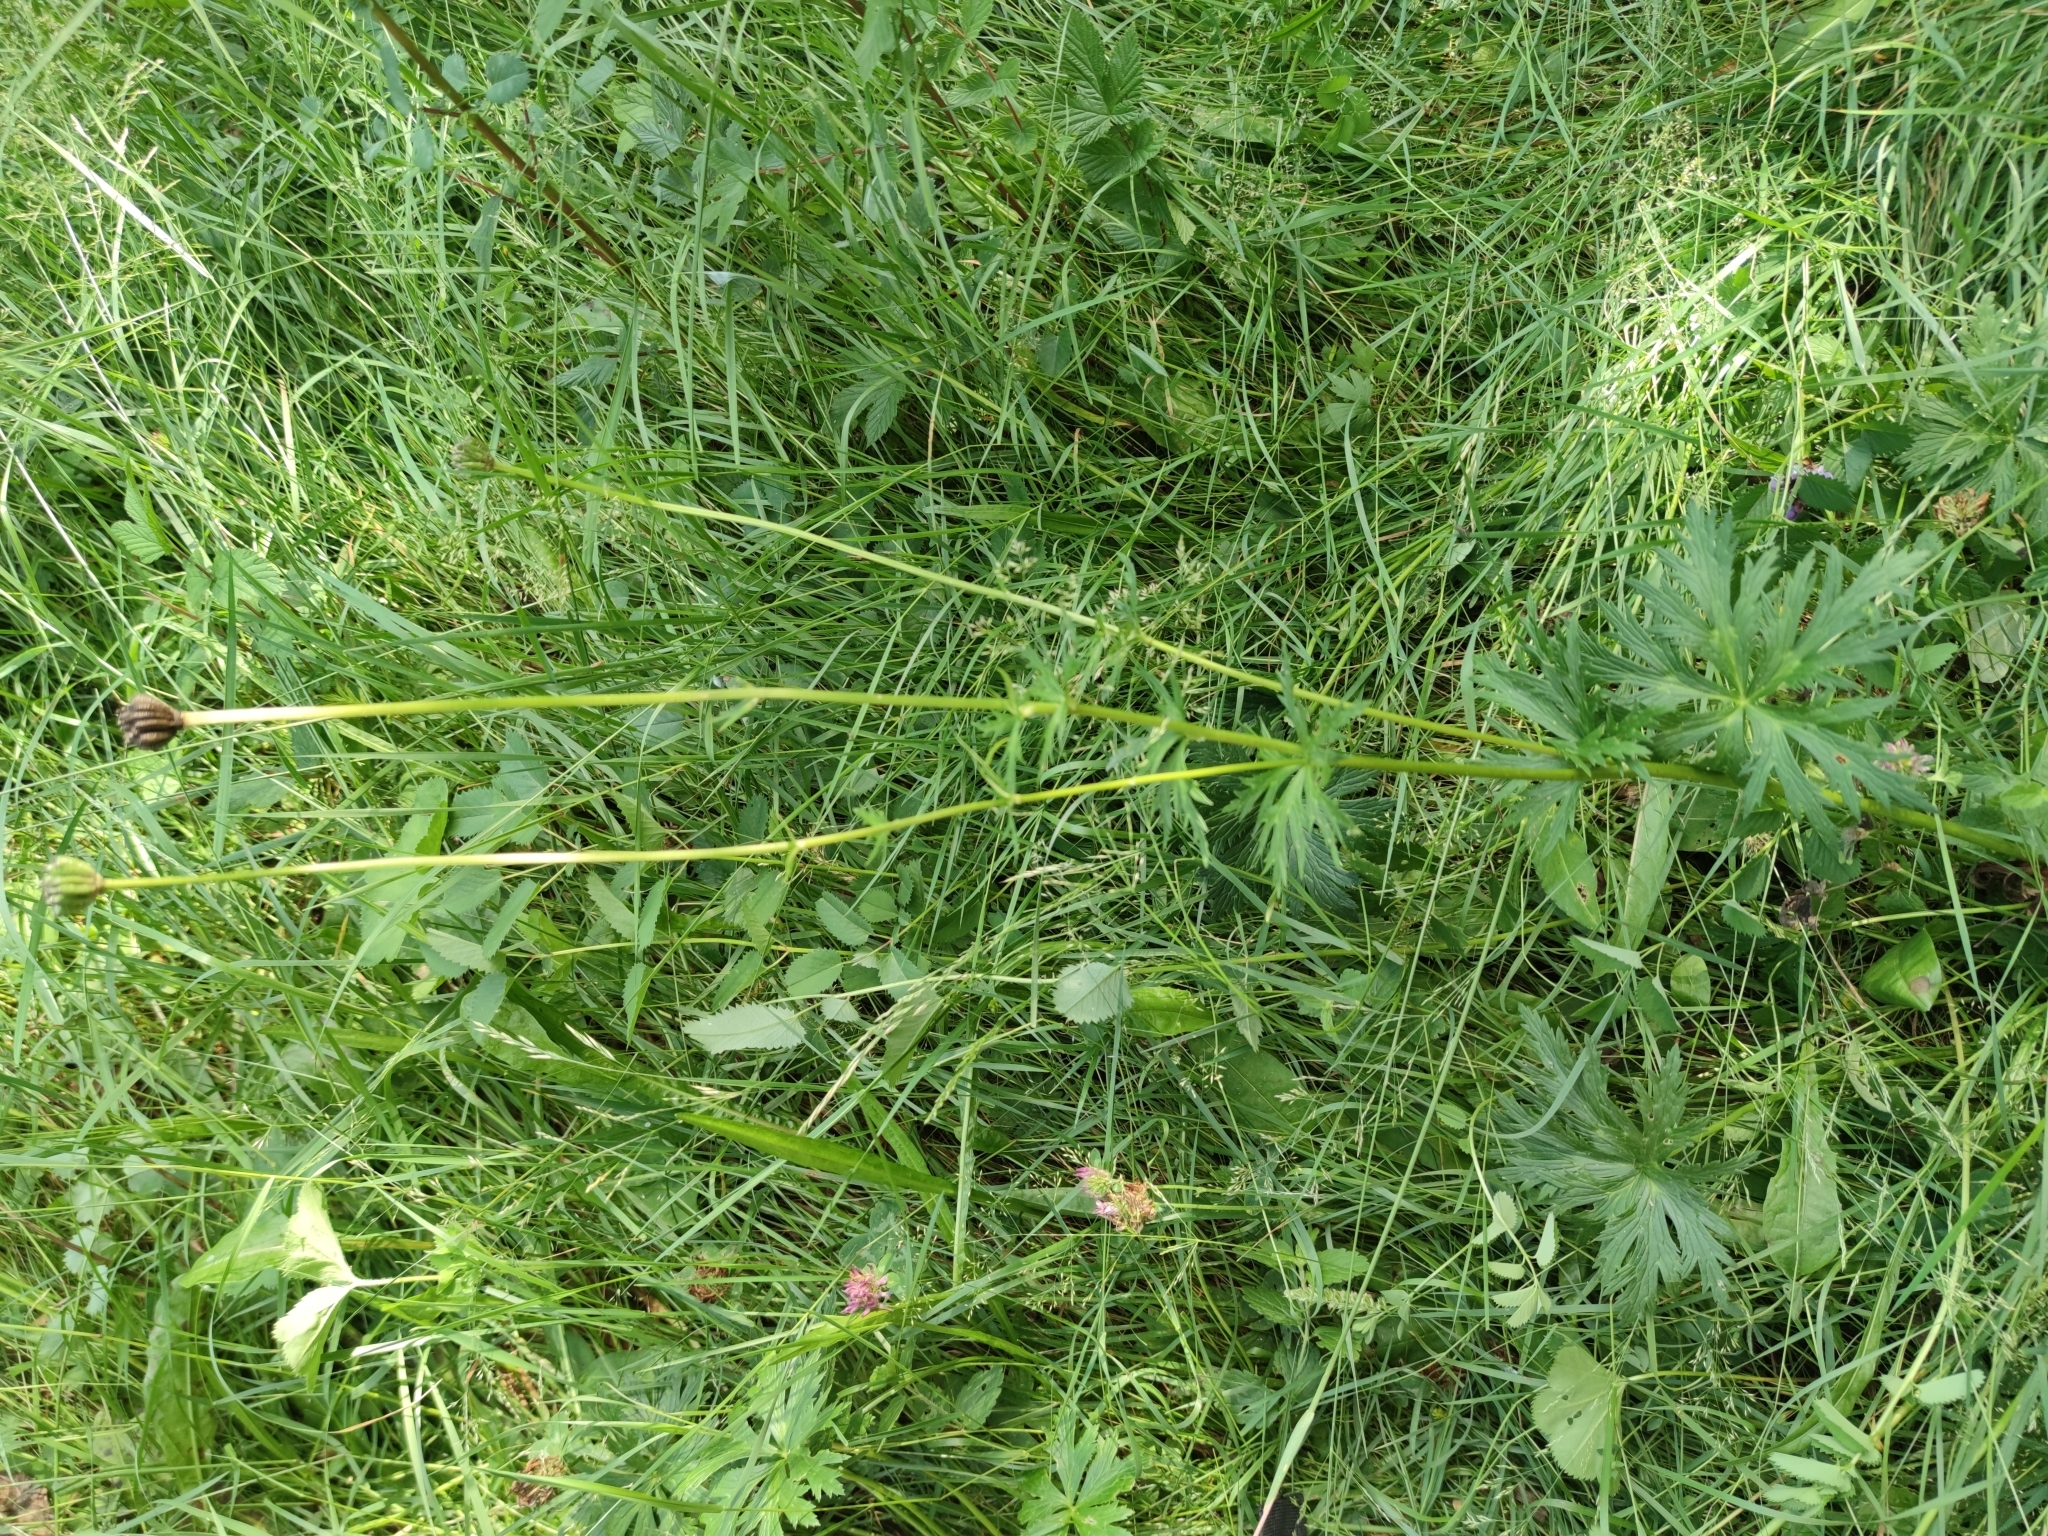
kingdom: Plantae
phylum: Tracheophyta
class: Magnoliopsida
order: Ranunculales
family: Ranunculaceae
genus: Trollius
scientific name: Trollius europaeus
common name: European globeflower
